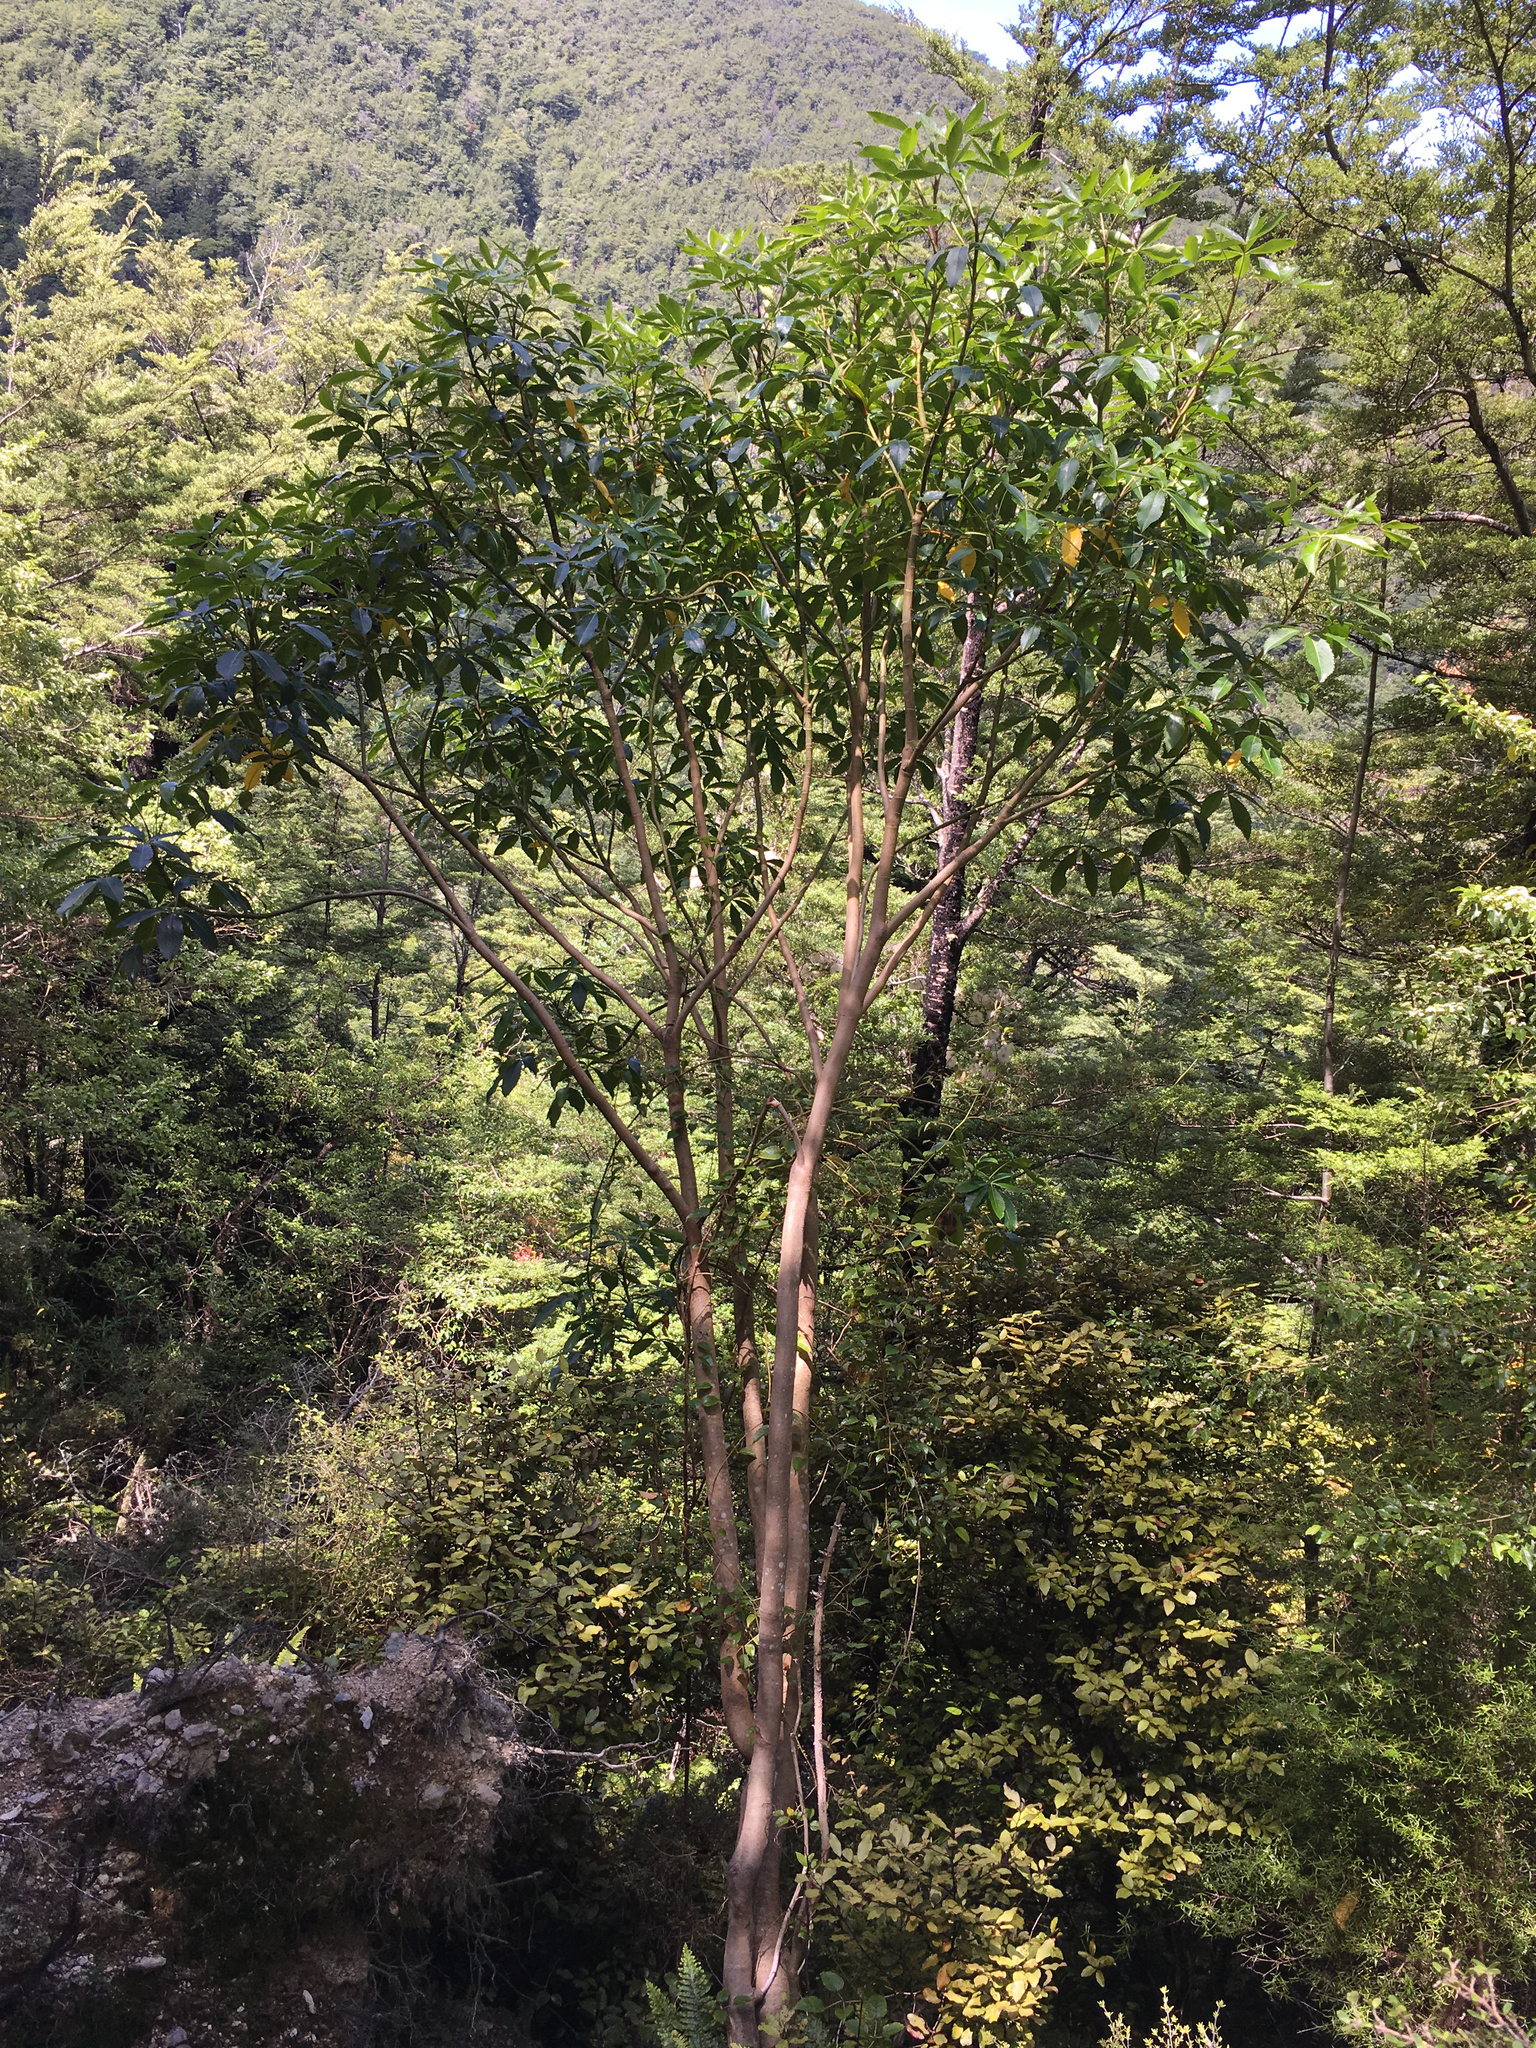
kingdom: Plantae
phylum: Tracheophyta
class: Magnoliopsida
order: Apiales
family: Araliaceae
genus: Neopanax
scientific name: Neopanax arboreus
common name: Five-fingers
